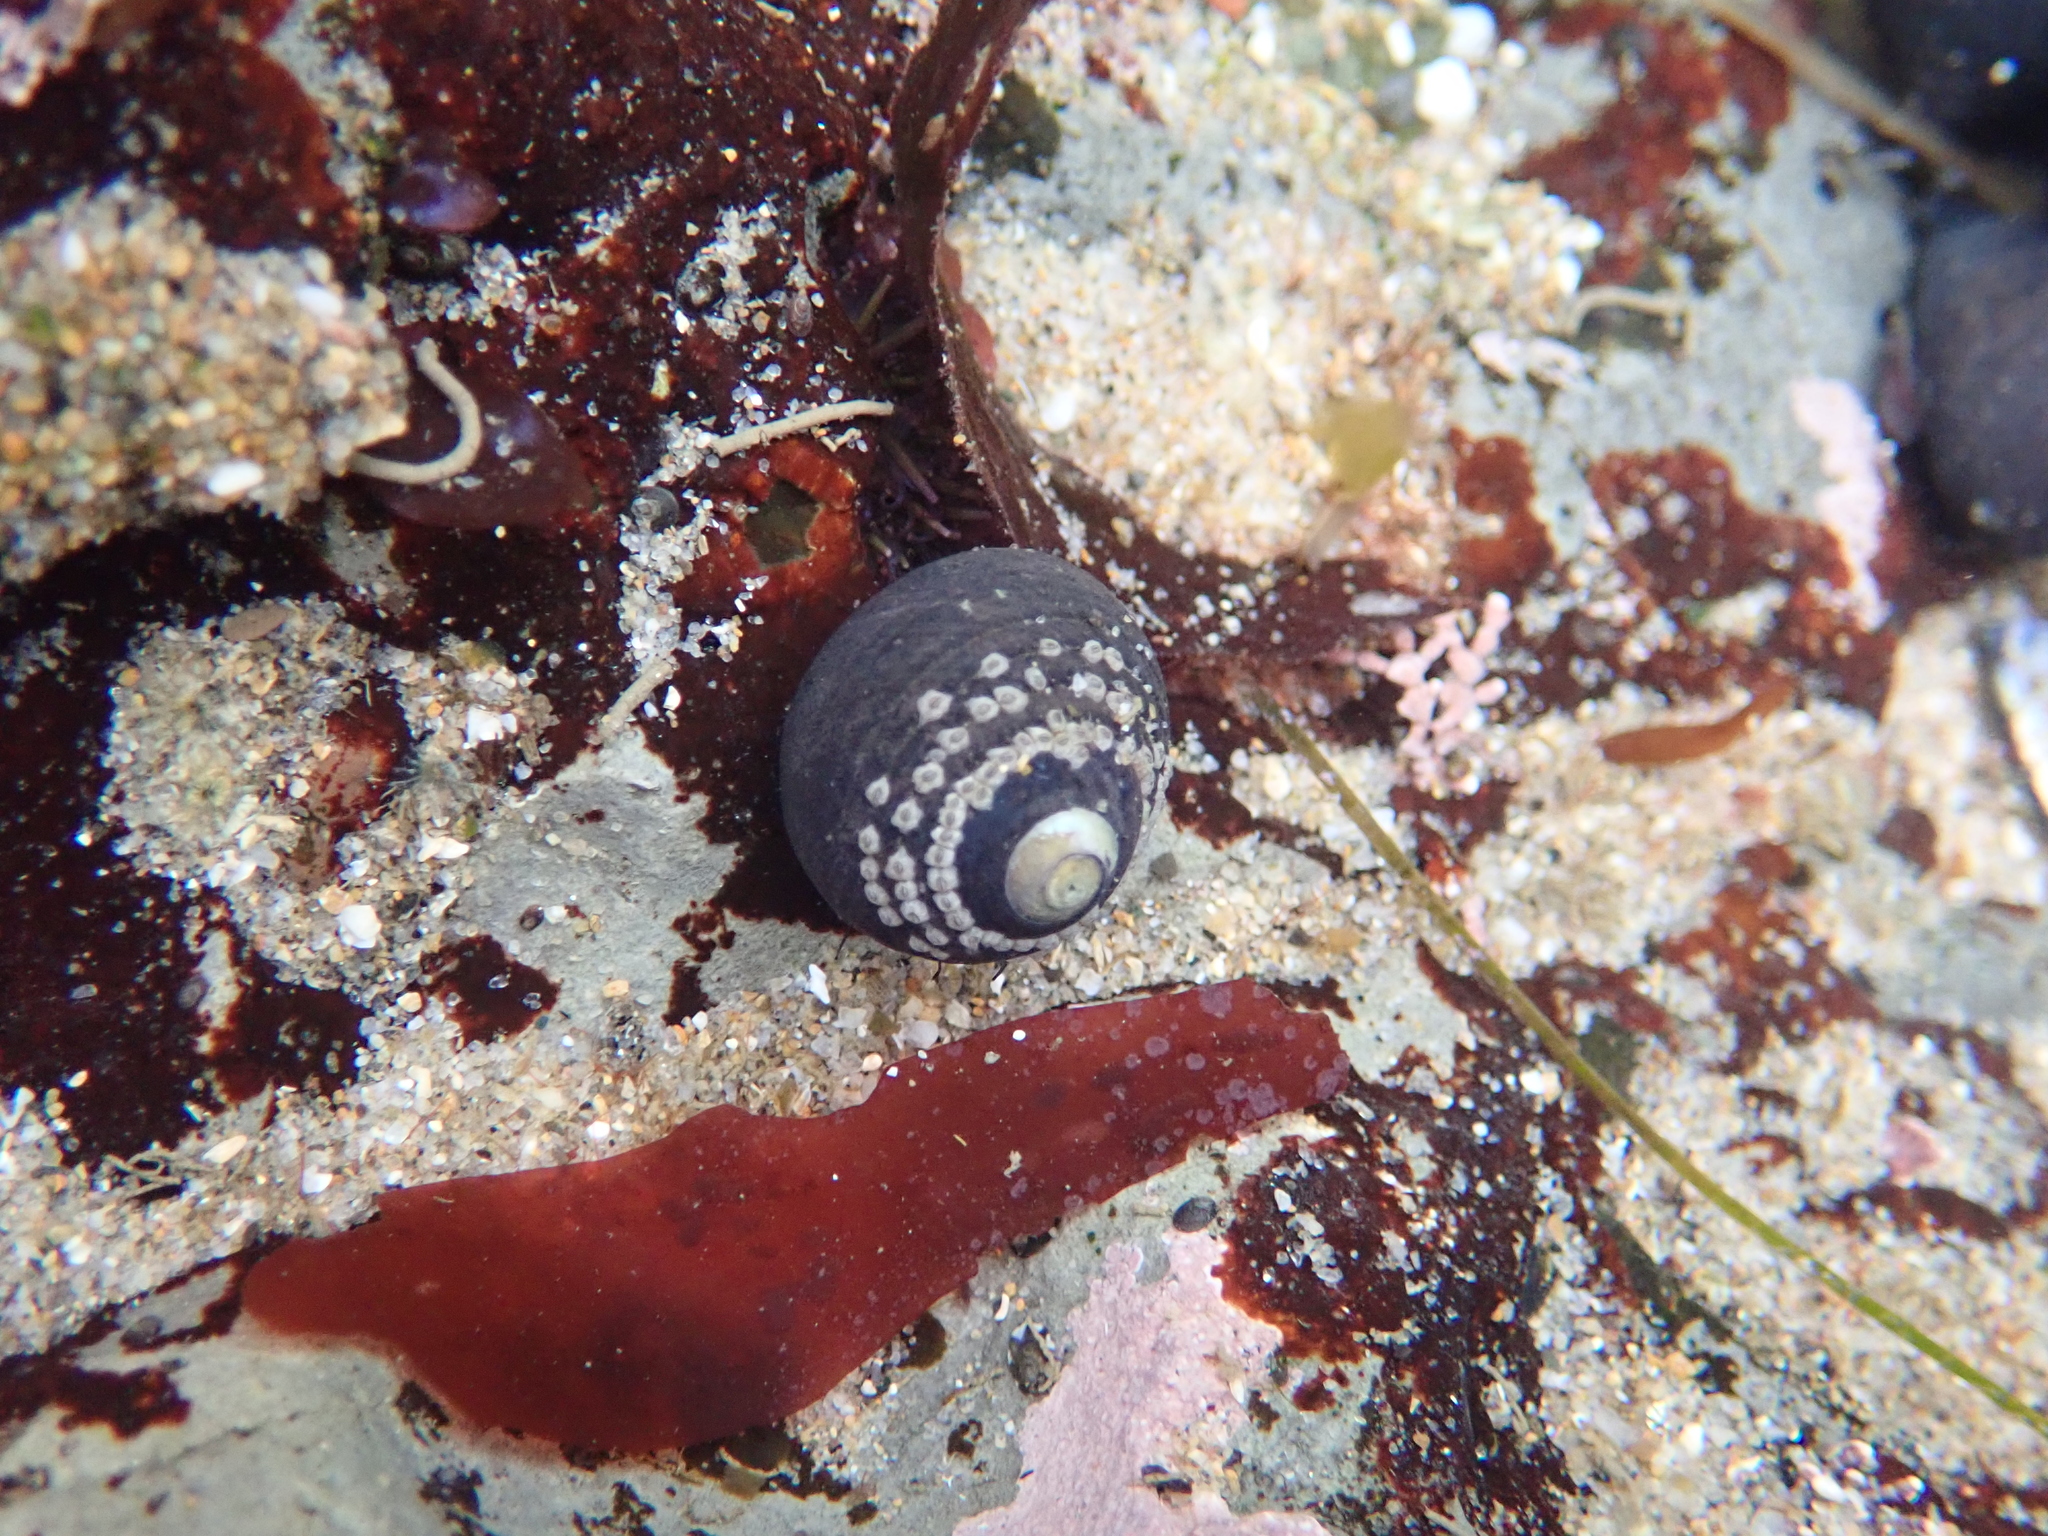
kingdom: Animalia
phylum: Mollusca
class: Gastropoda
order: Trochida
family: Tegulidae
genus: Tegula
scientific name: Tegula funebralis
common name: Black tegula
